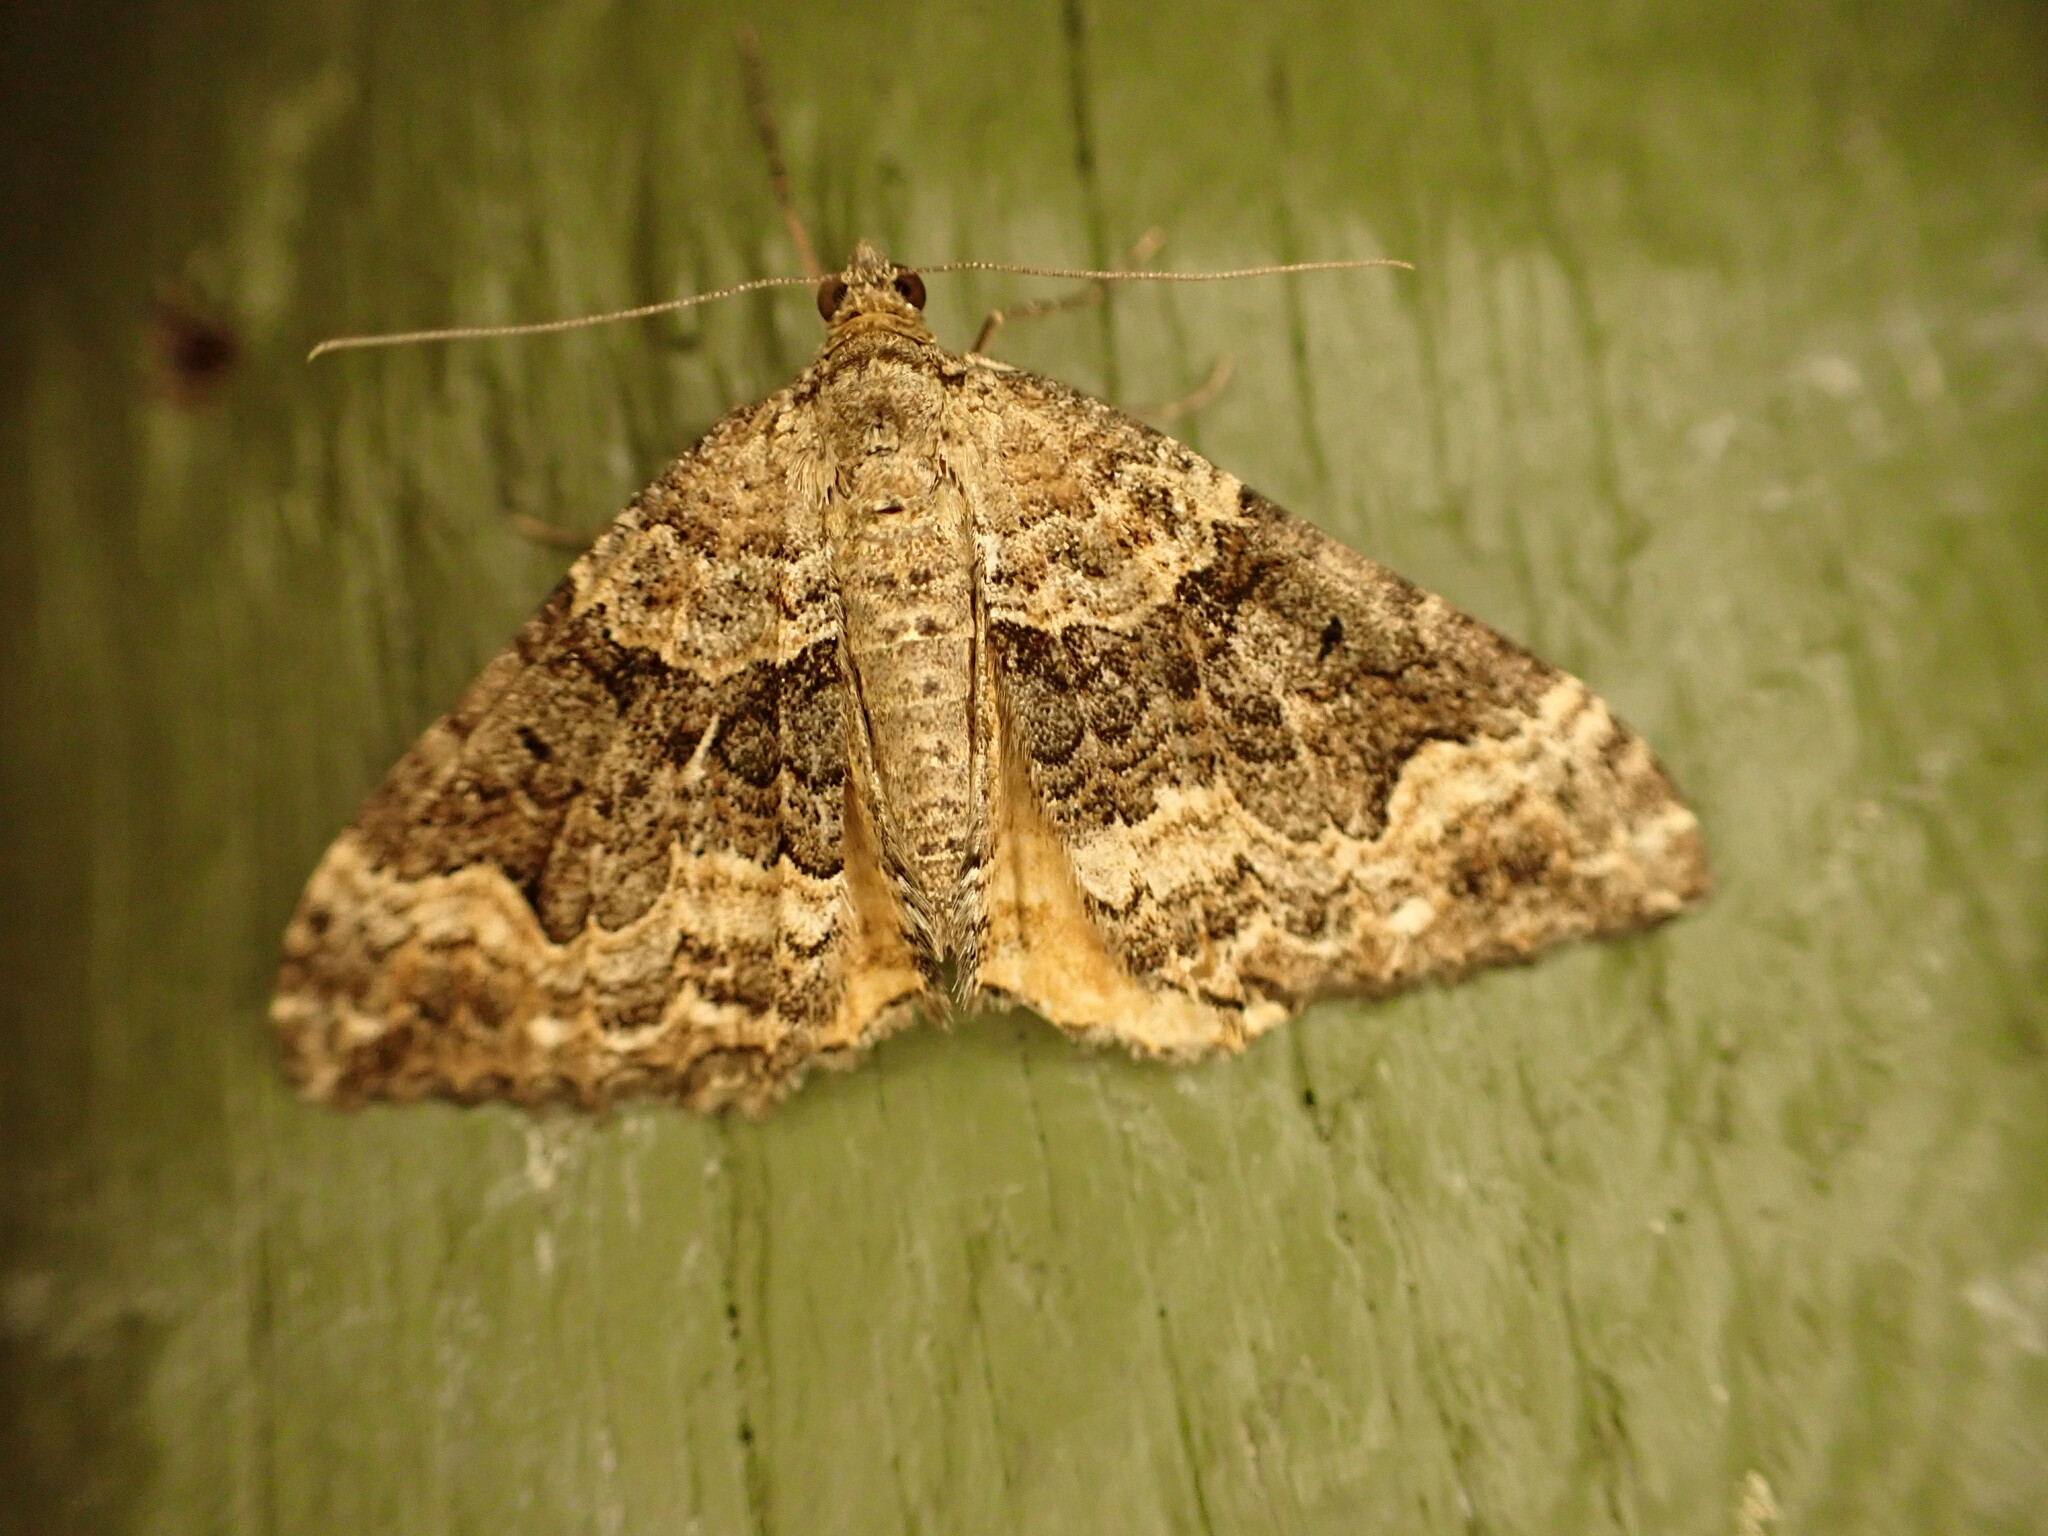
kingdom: Animalia
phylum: Arthropoda
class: Insecta
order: Lepidoptera
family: Geometridae
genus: Hydriomena
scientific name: Hydriomena deltoidata
